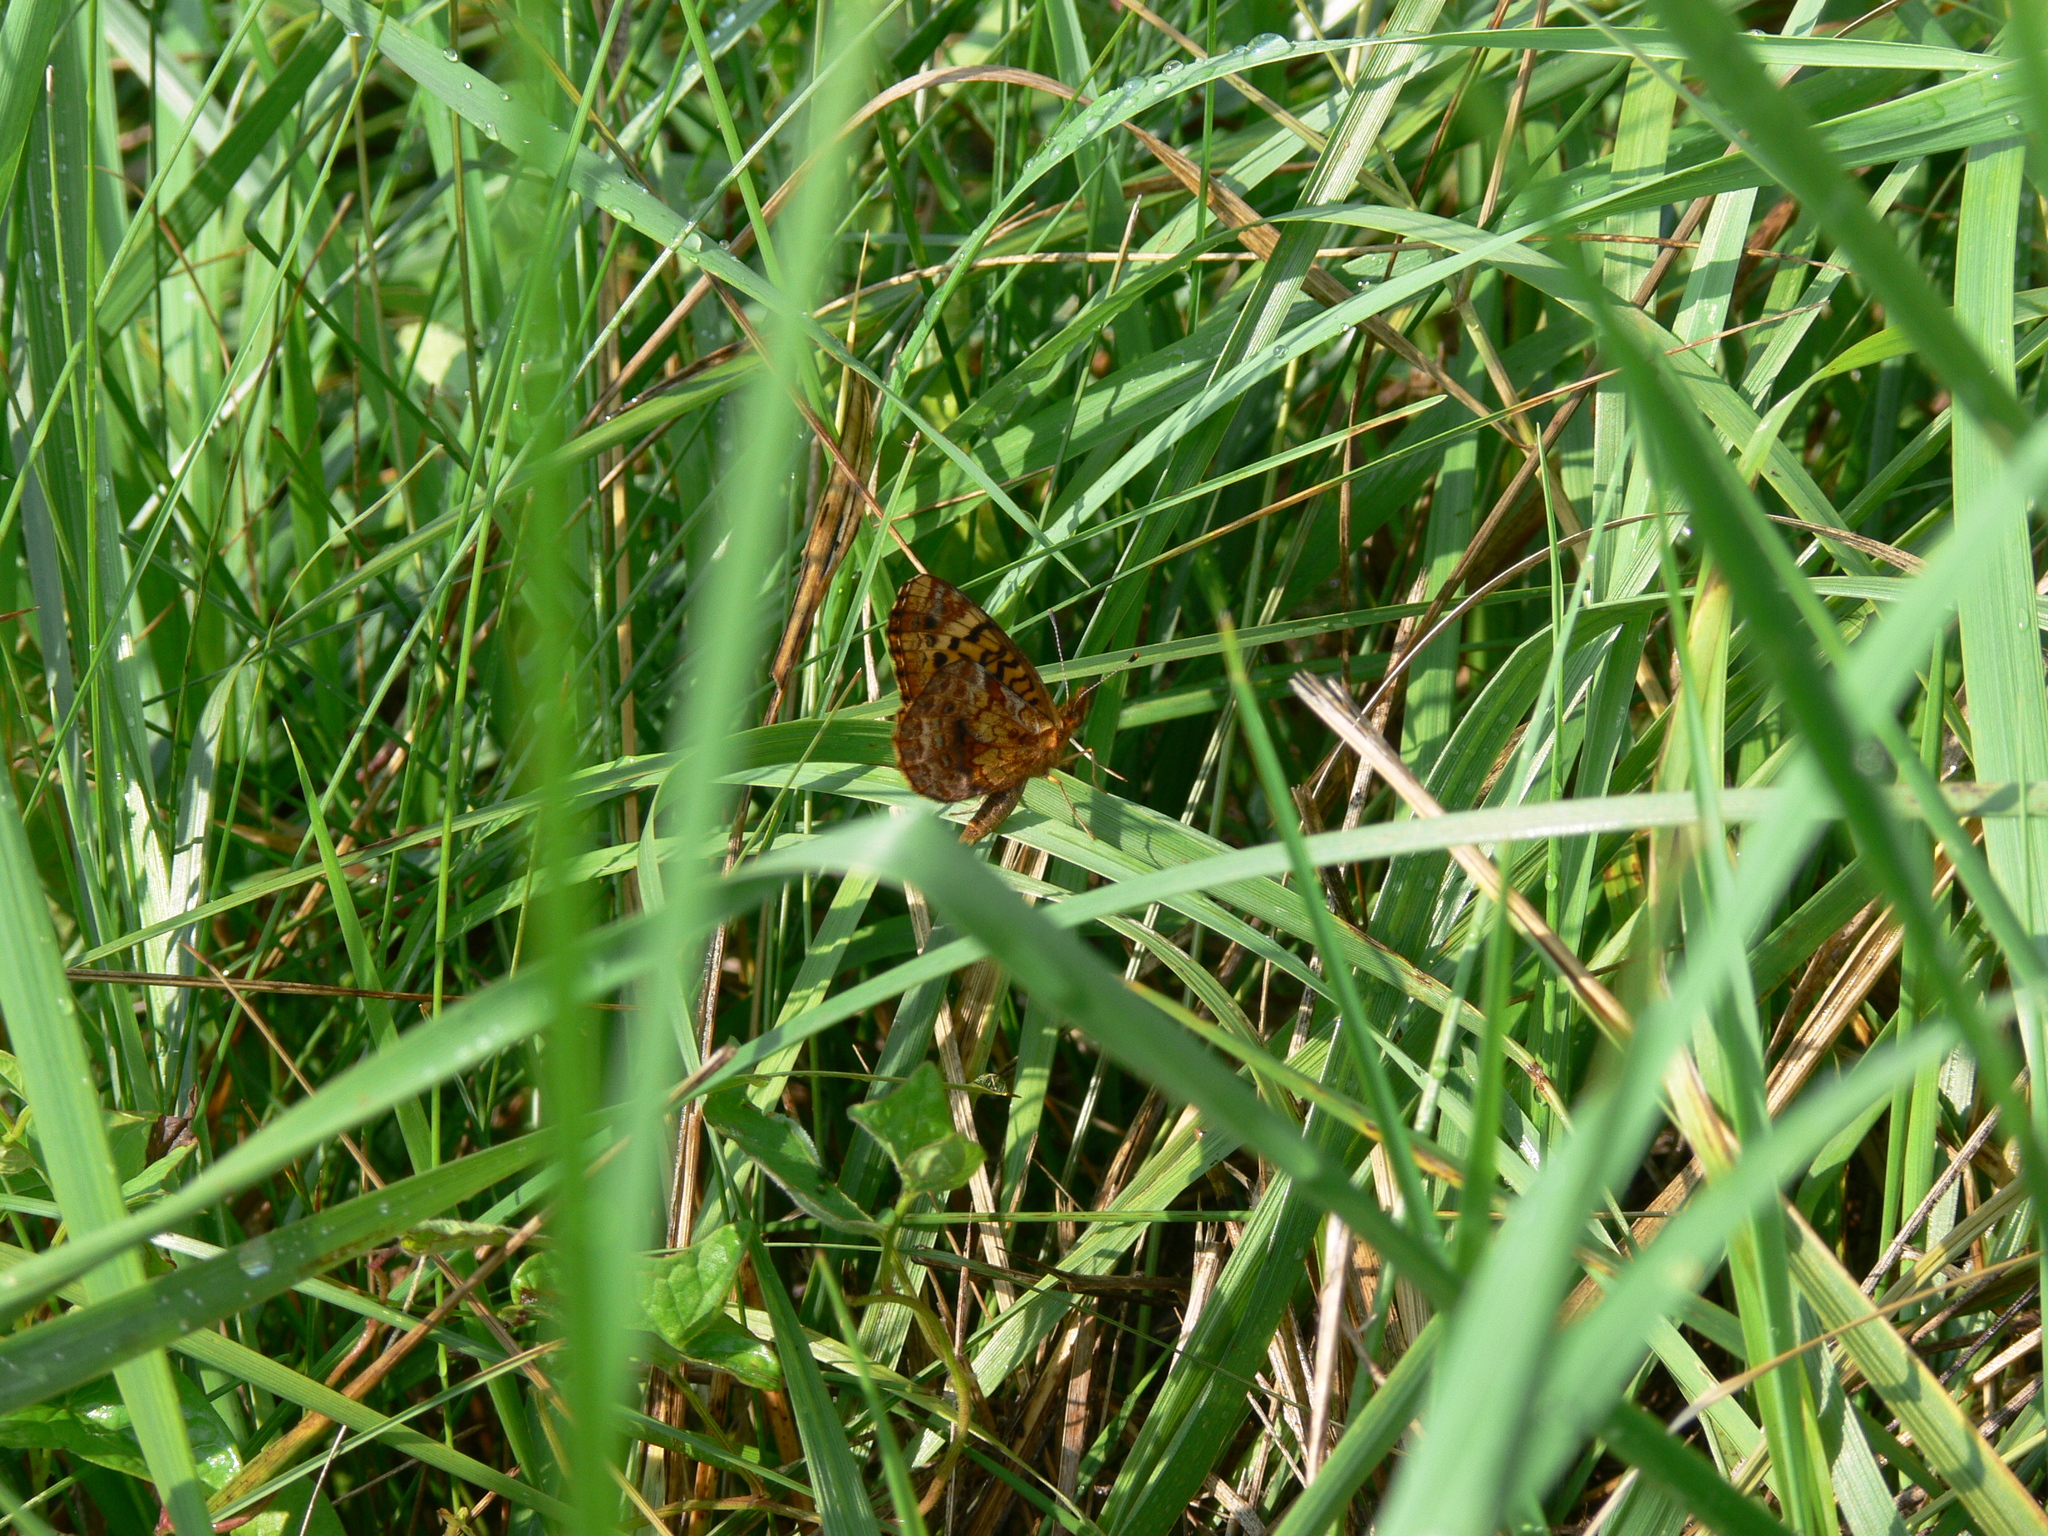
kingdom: Animalia
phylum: Arthropoda
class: Insecta
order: Lepidoptera
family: Nymphalidae
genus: Clossiana
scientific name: Clossiana toddi
